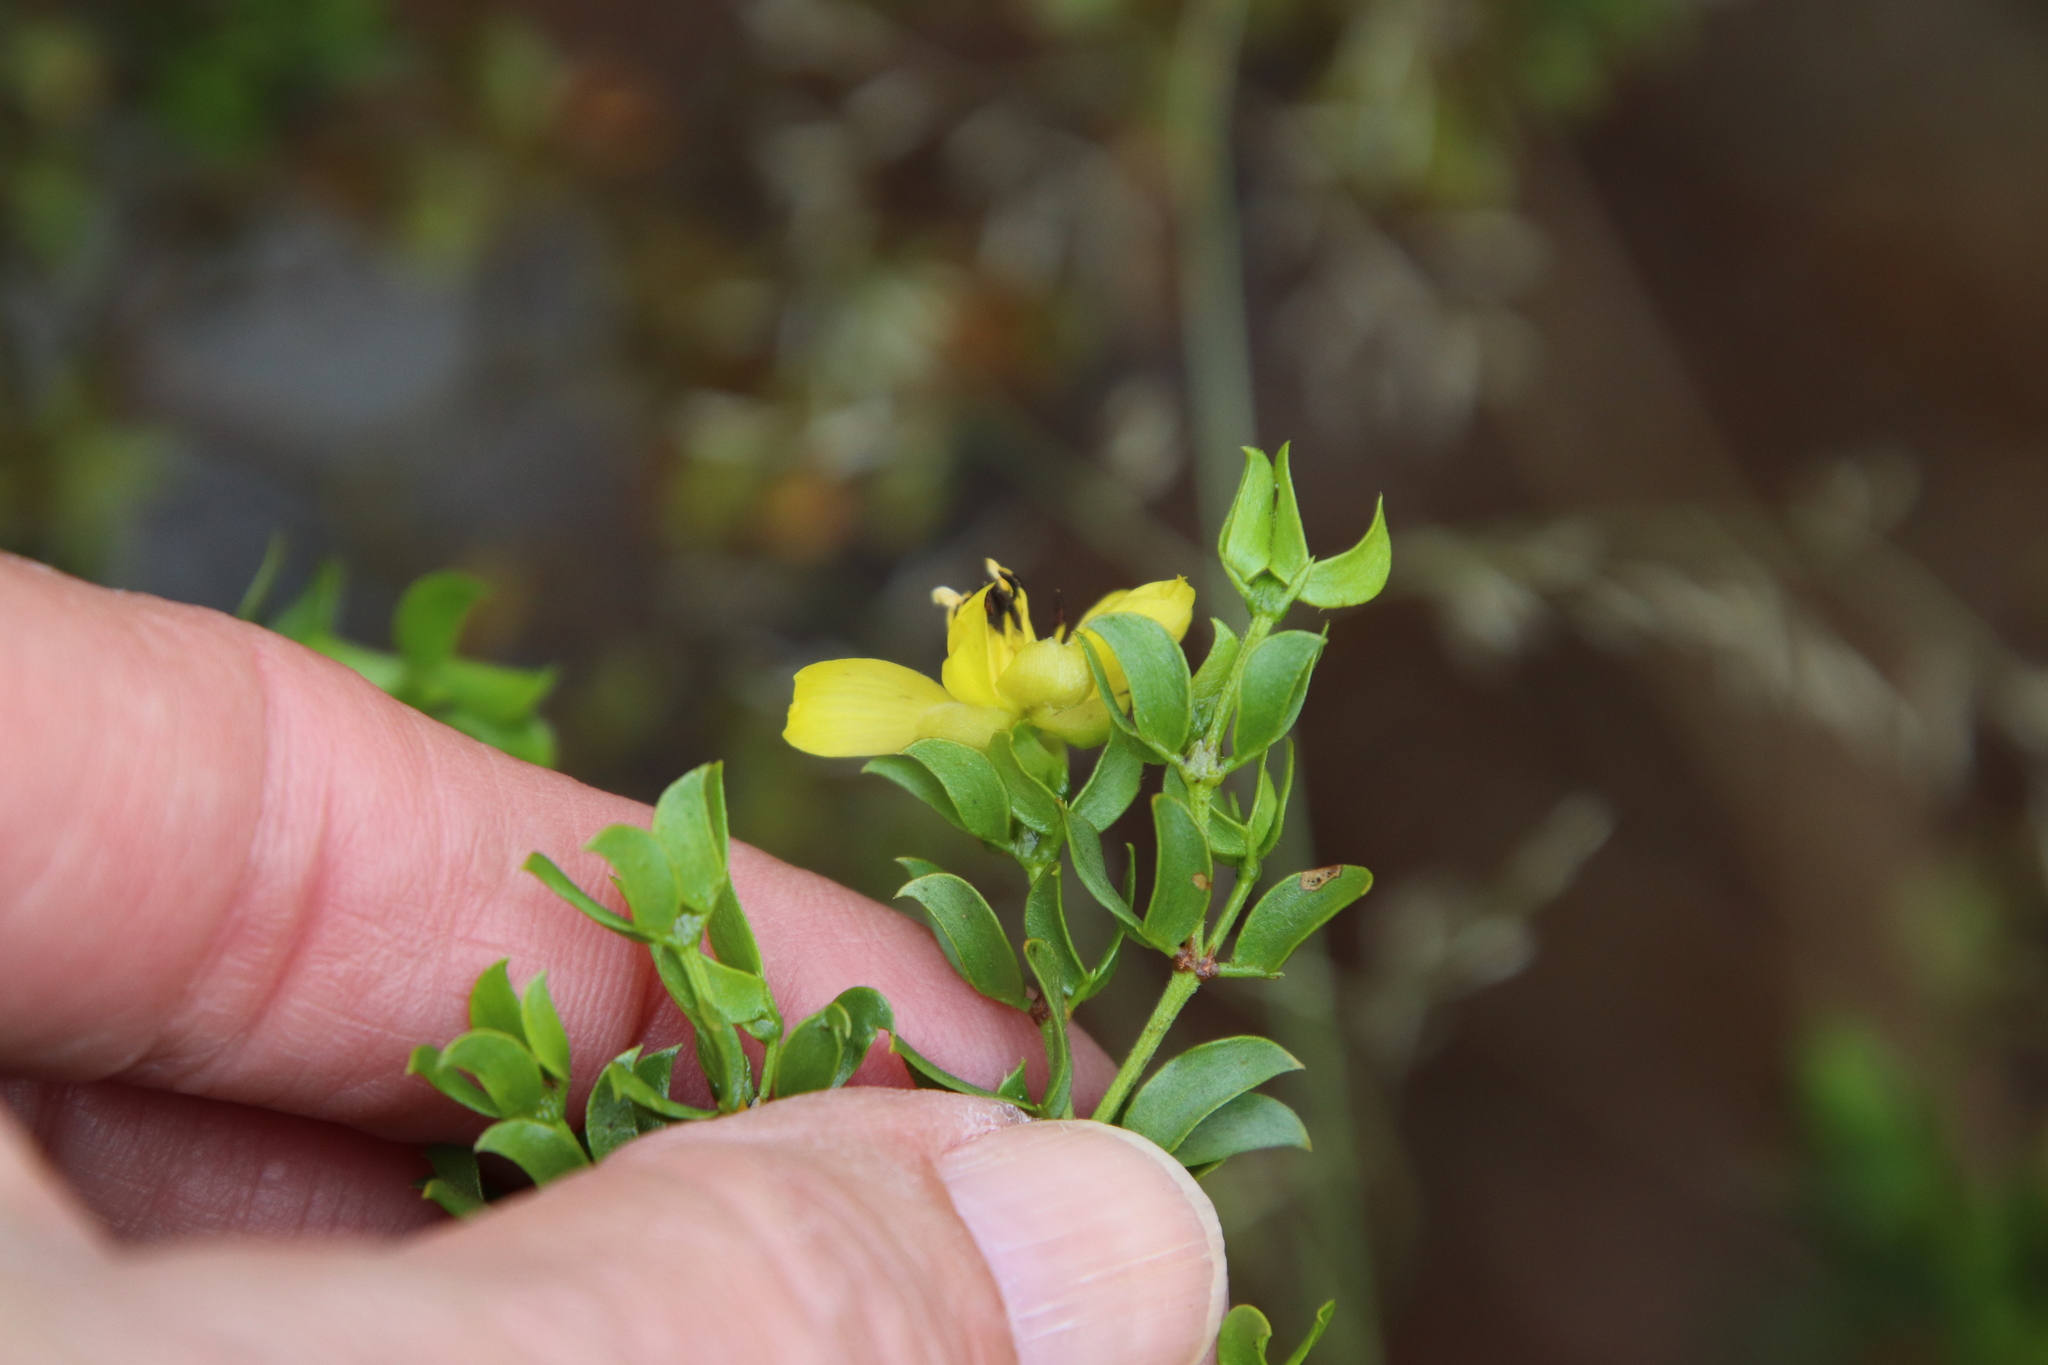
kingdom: Plantae
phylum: Tracheophyta
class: Magnoliopsida
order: Zygophyllales
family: Zygophyllaceae
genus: Larrea
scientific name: Larrea tridentata
